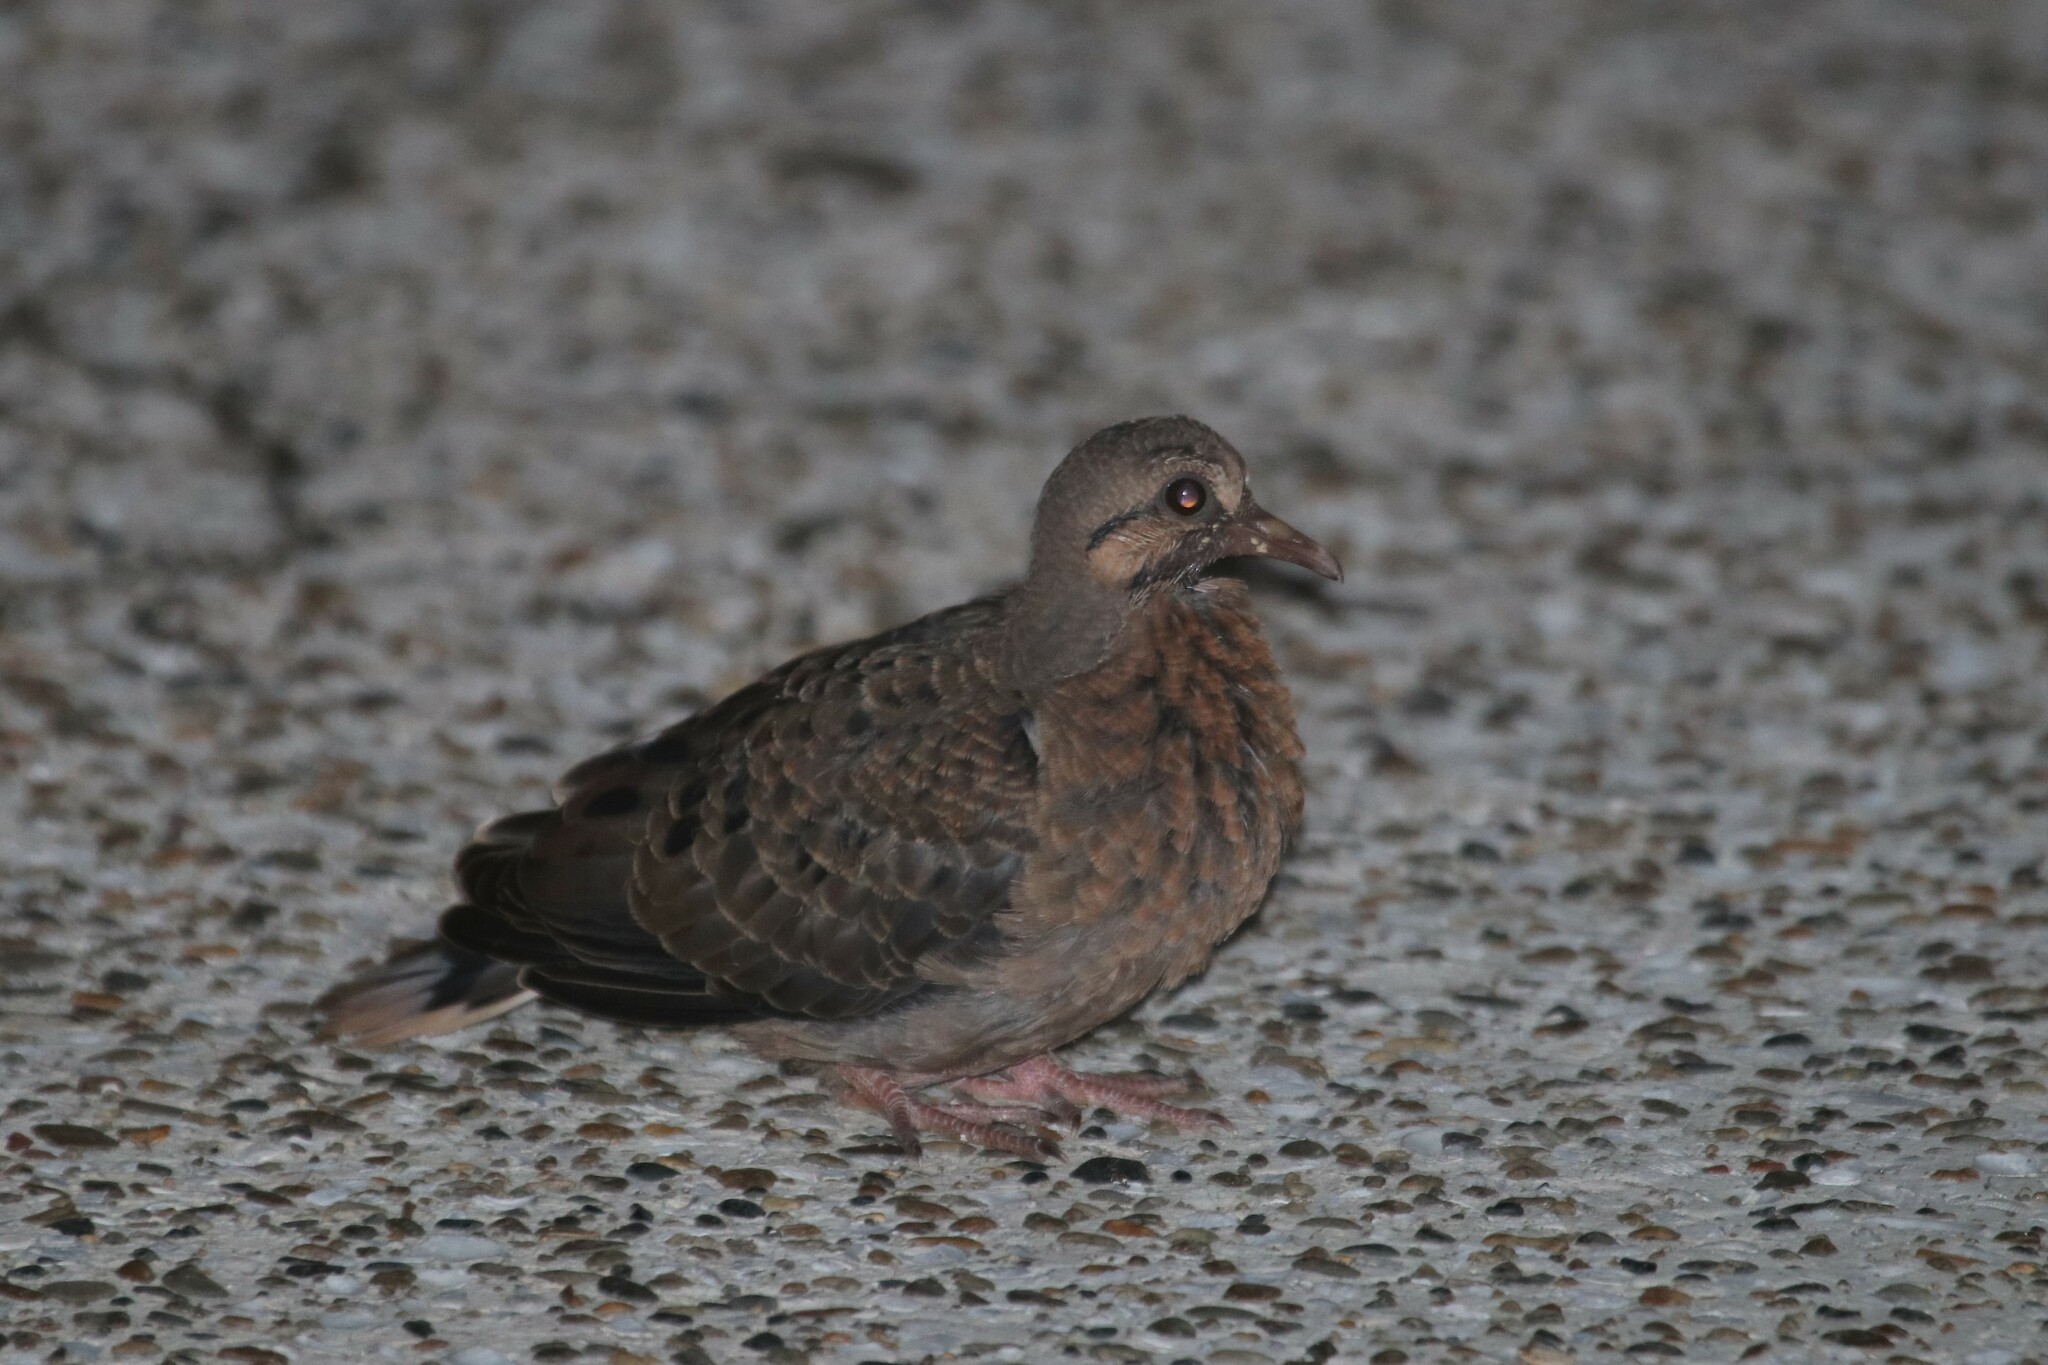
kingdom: Animalia
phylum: Chordata
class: Aves
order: Columbiformes
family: Columbidae
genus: Zenaida
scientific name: Zenaida auriculata
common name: Eared dove
